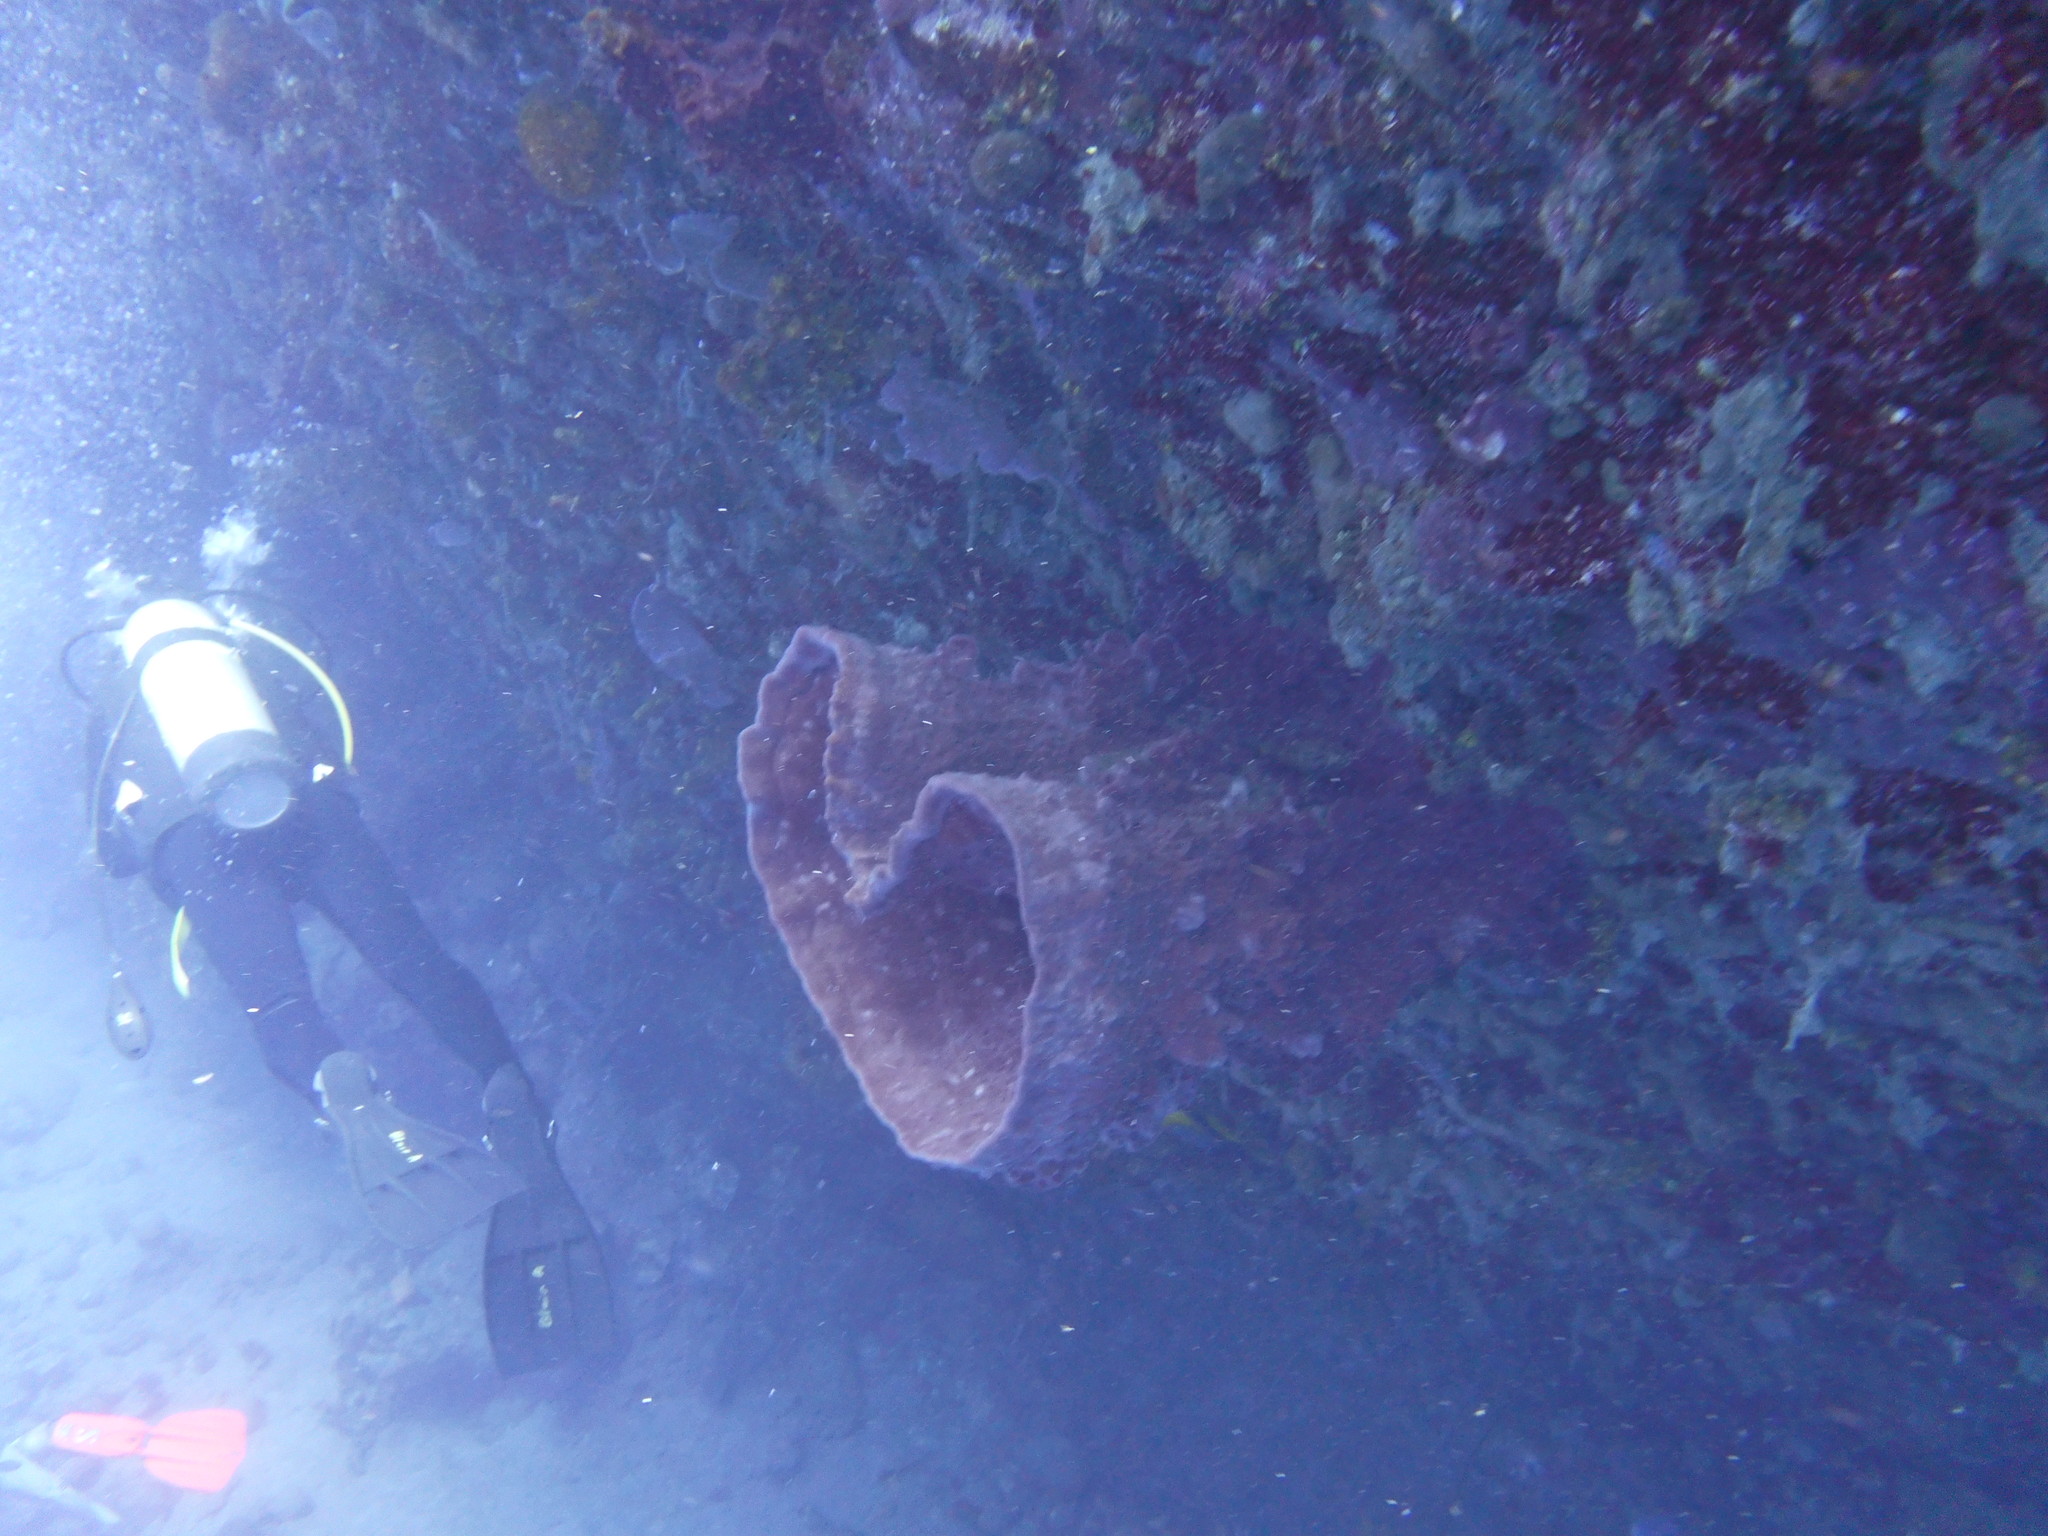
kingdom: Animalia
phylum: Porifera
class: Demospongiae
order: Haplosclerida
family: Petrosiidae
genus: Xestospongia
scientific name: Xestospongia muta
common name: Giant barrel sponge
